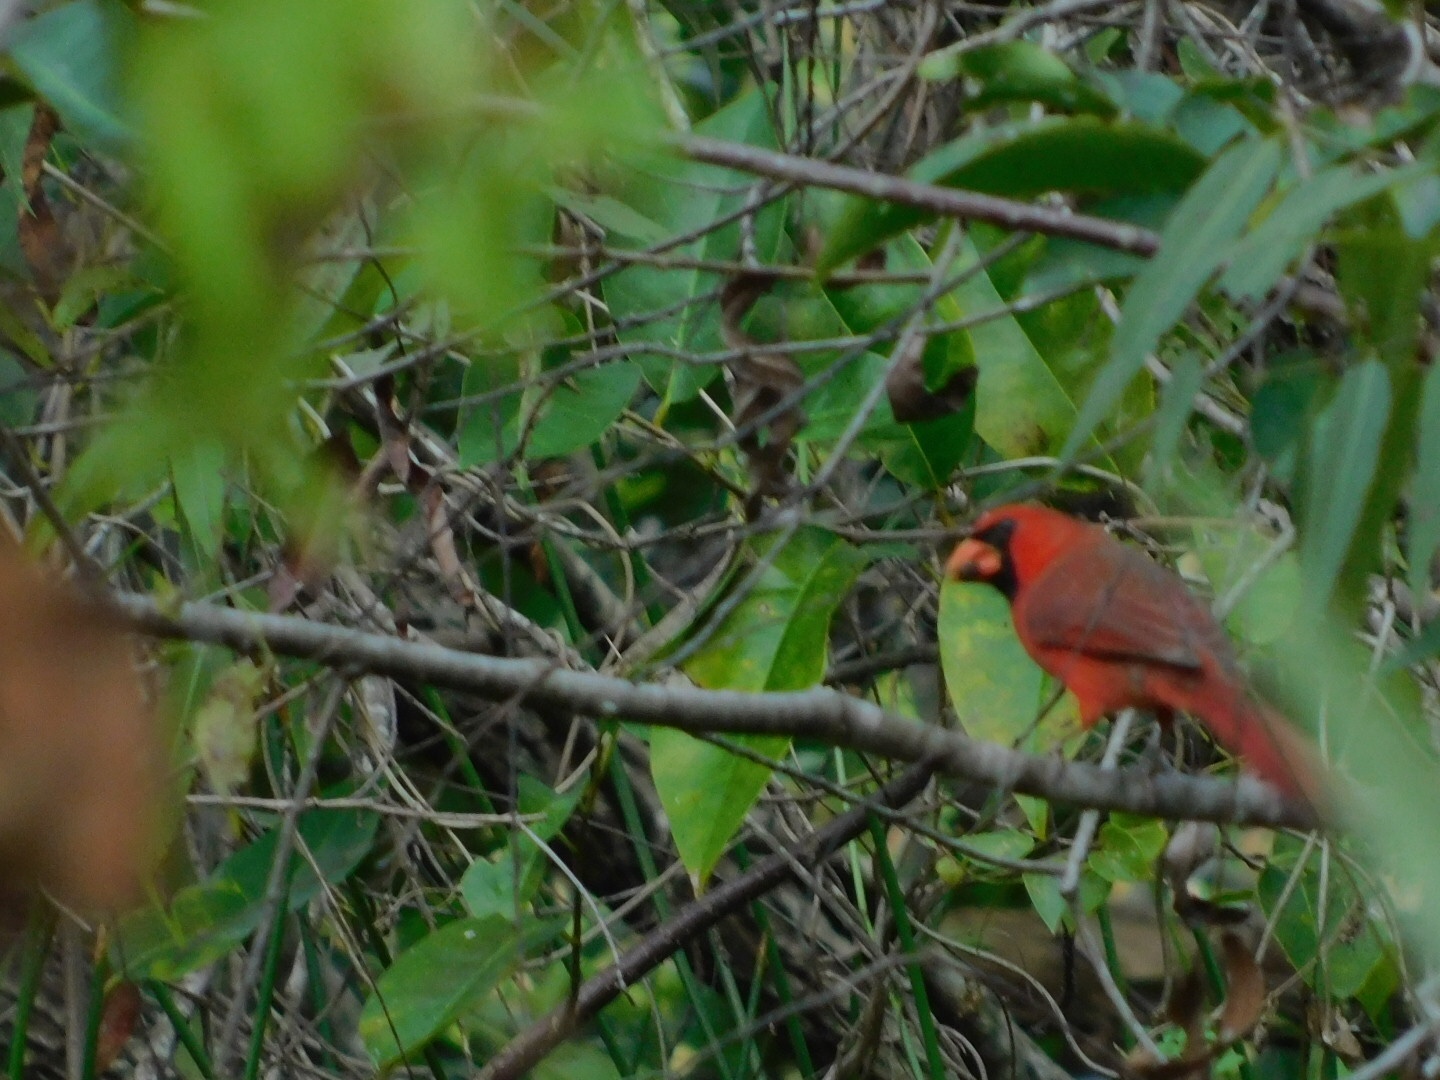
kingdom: Animalia
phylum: Chordata
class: Aves
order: Passeriformes
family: Cardinalidae
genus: Cardinalis
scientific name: Cardinalis cardinalis
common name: Northern cardinal
